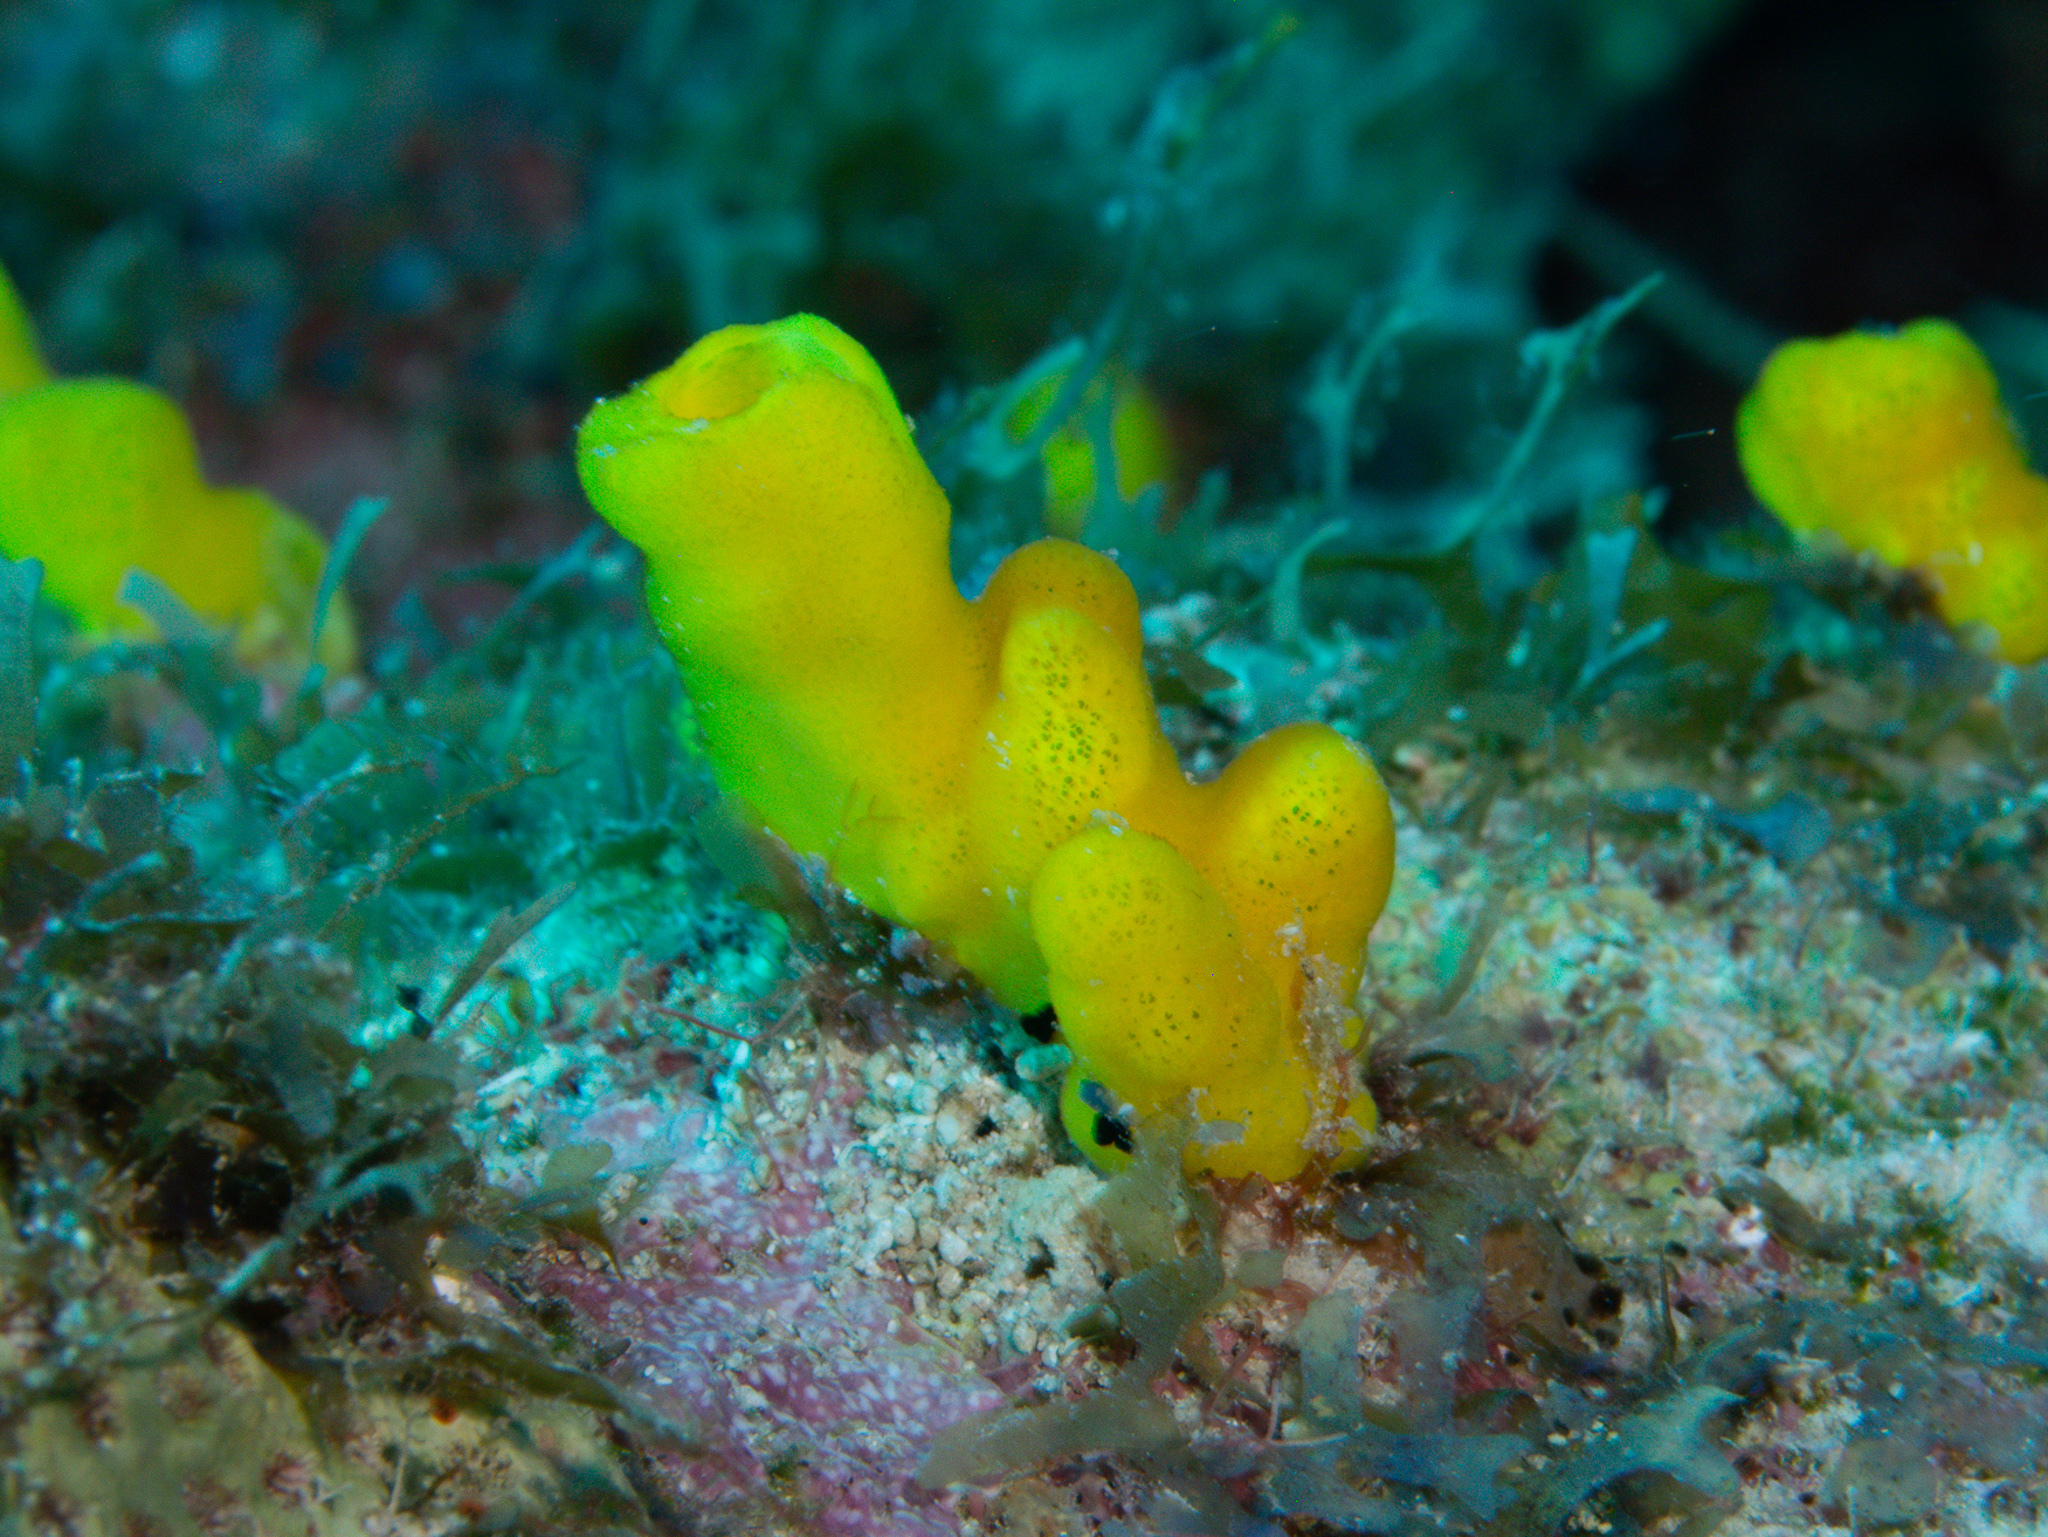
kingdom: Animalia
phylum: Porifera
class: Demospongiae
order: Haplosclerida
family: Phloeodictyidae
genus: Siphonodictyon
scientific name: Siphonodictyon coralliphagum
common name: Coral-eating boring sponge
